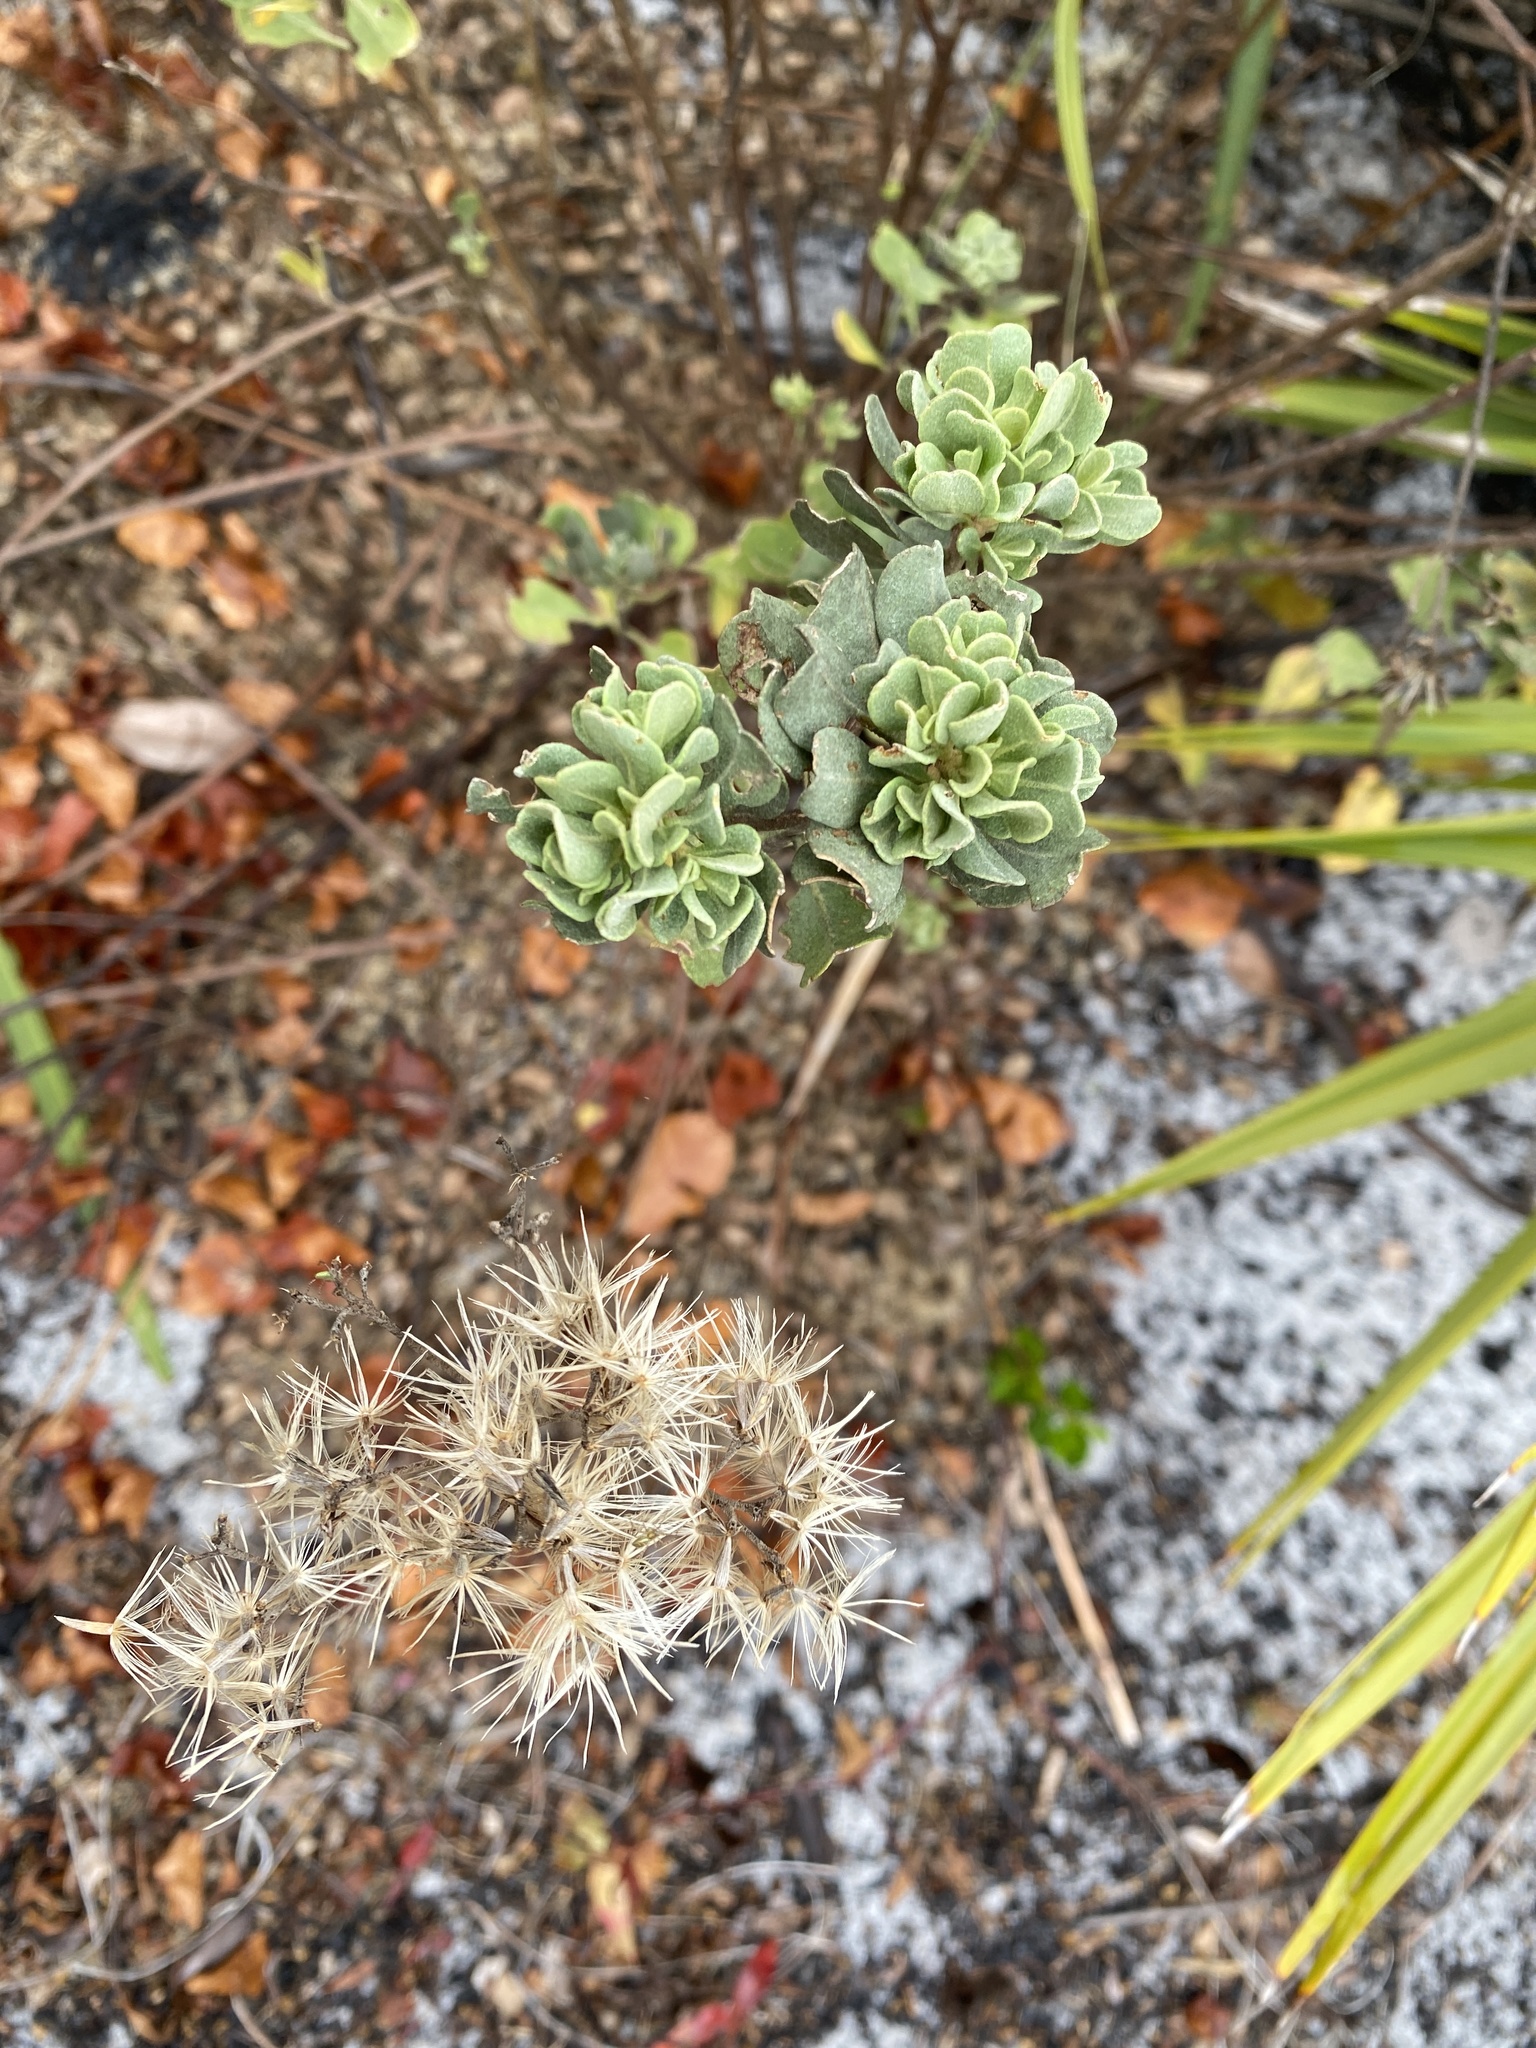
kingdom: Plantae
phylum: Tracheophyta
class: Magnoliopsida
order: Asterales
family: Asteraceae
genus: Garberia
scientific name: Garberia heterophylla
